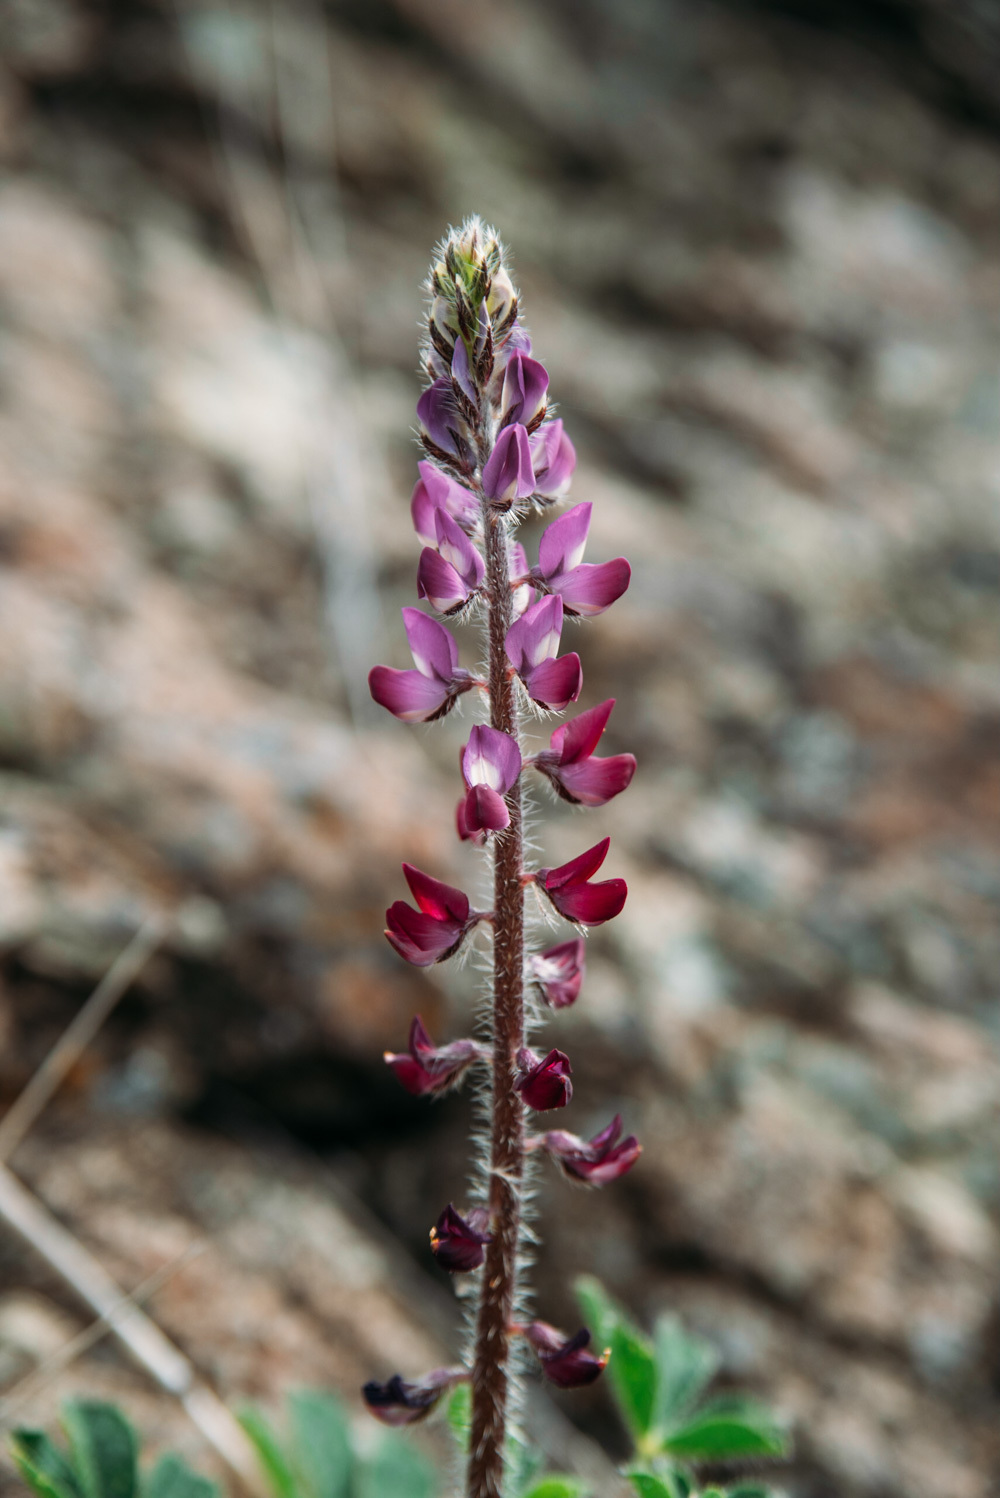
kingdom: Plantae
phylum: Tracheophyta
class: Magnoliopsida
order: Fabales
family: Fabaceae
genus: Lupinus
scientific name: Lupinus hirsutissimus
